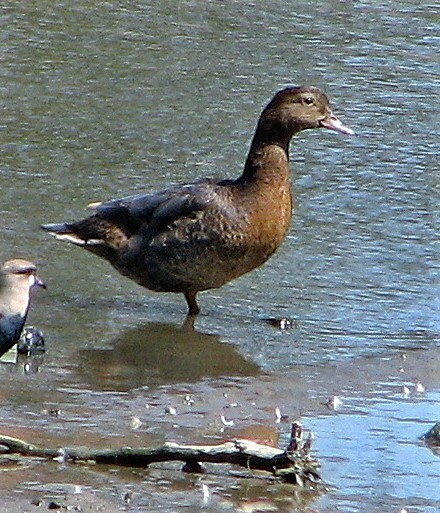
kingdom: Animalia
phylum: Chordata
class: Aves
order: Anseriformes
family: Anatidae
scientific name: Anatidae
